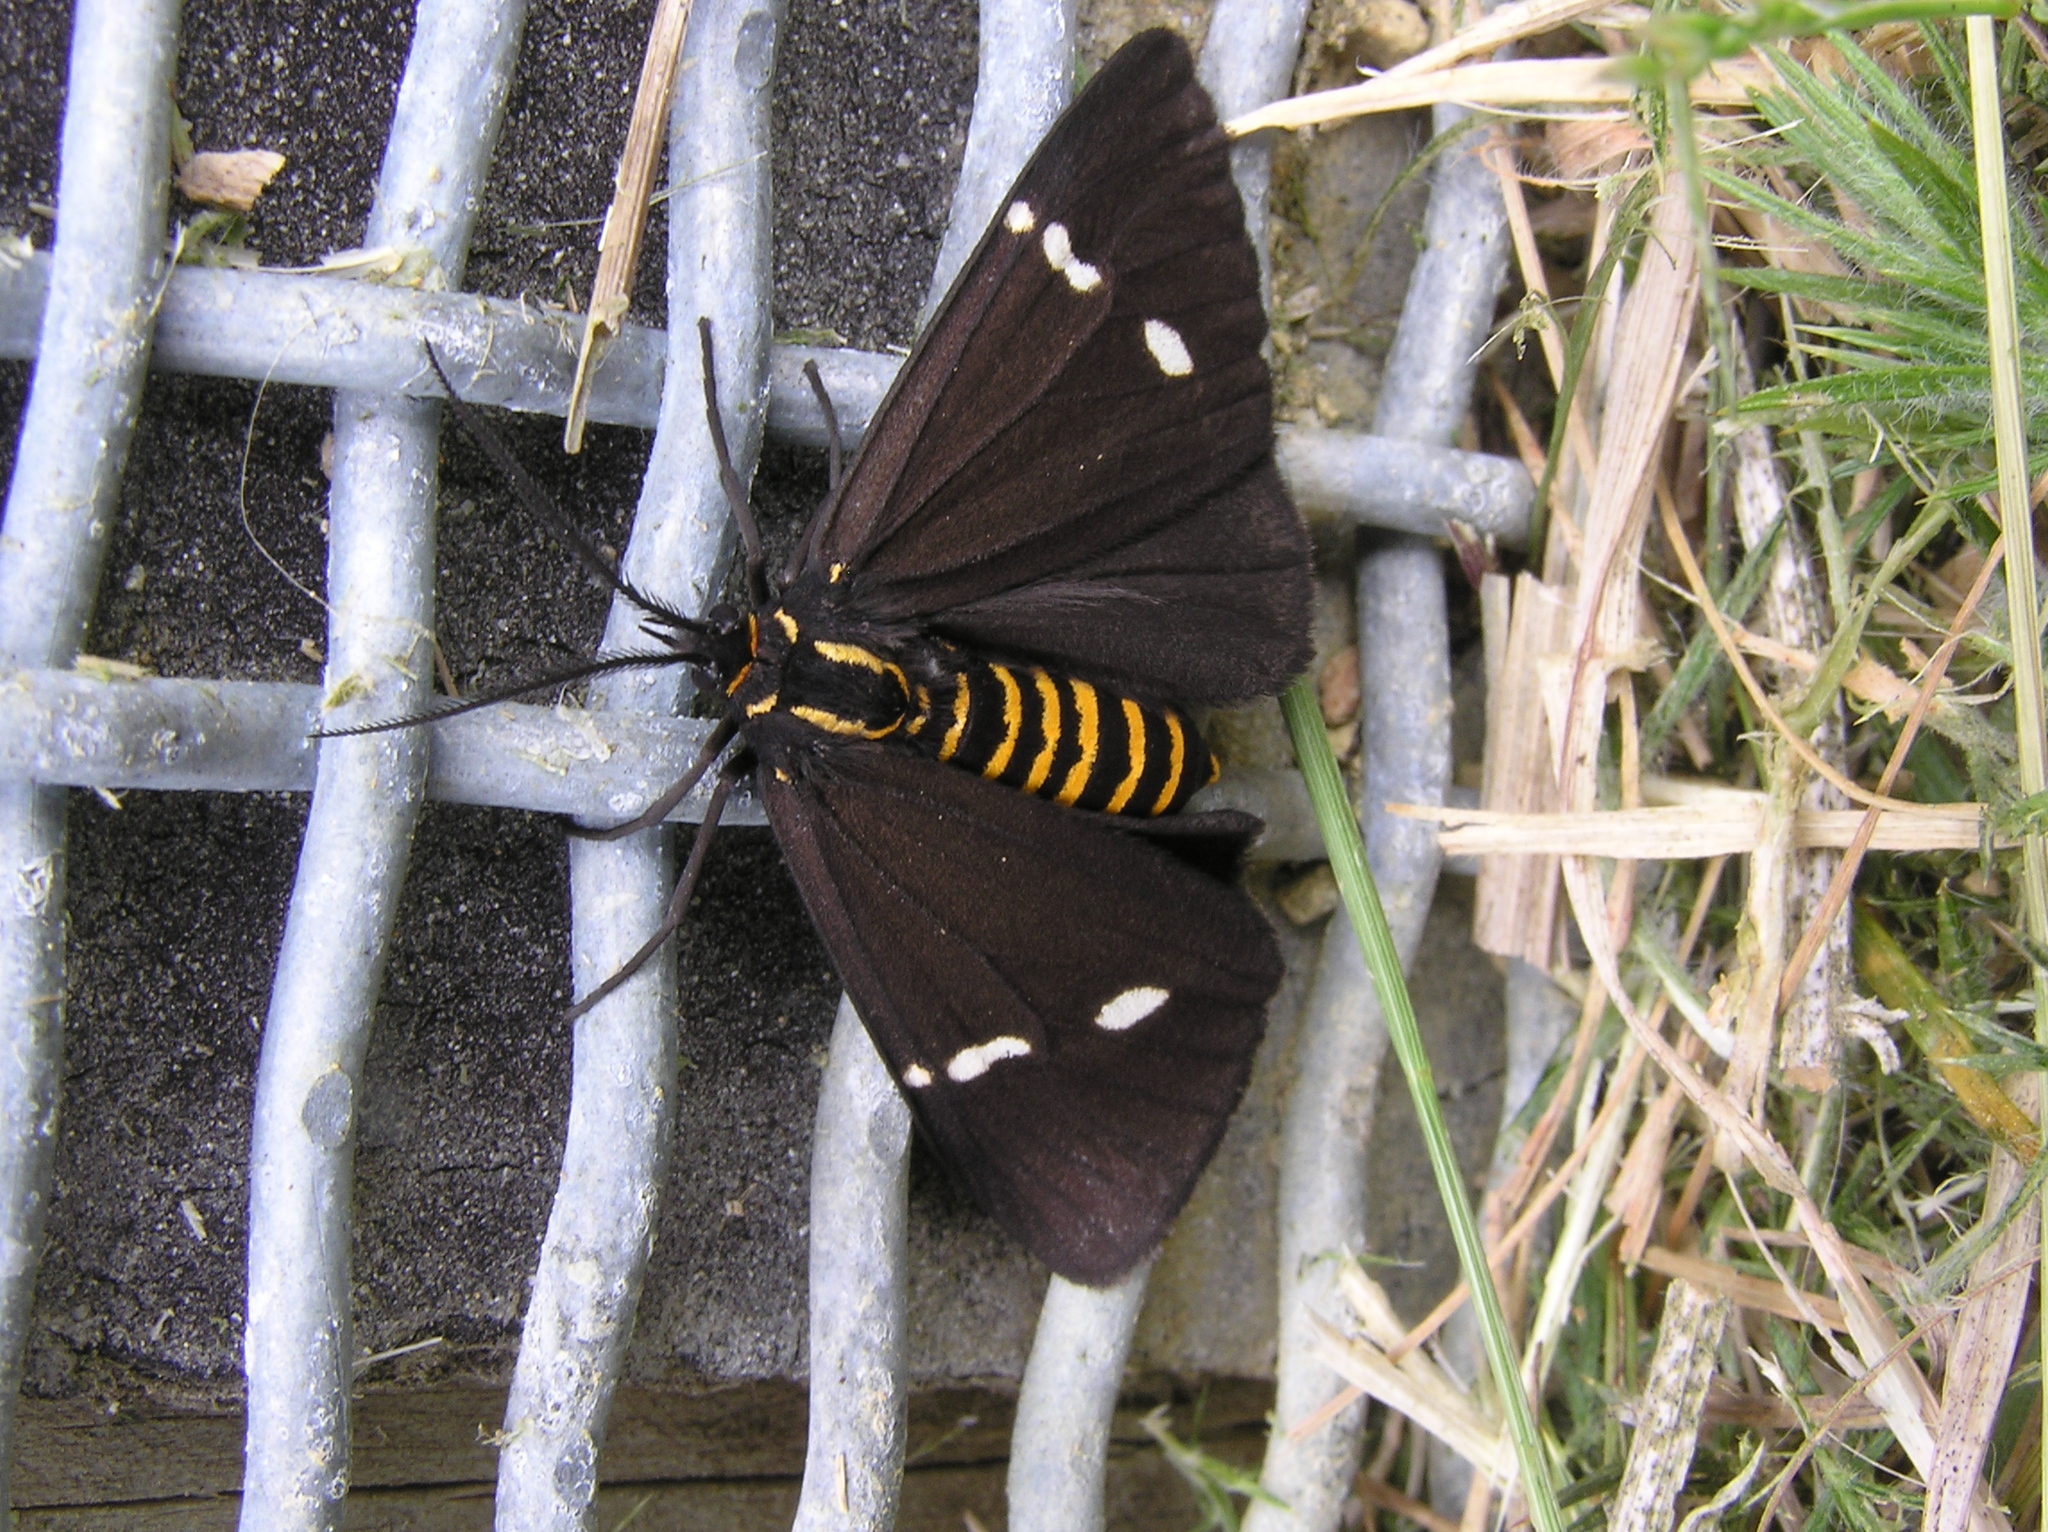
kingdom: Animalia
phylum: Arthropoda
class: Insecta
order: Lepidoptera
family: Erebidae
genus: Nyctemera
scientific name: Nyctemera annulatum
